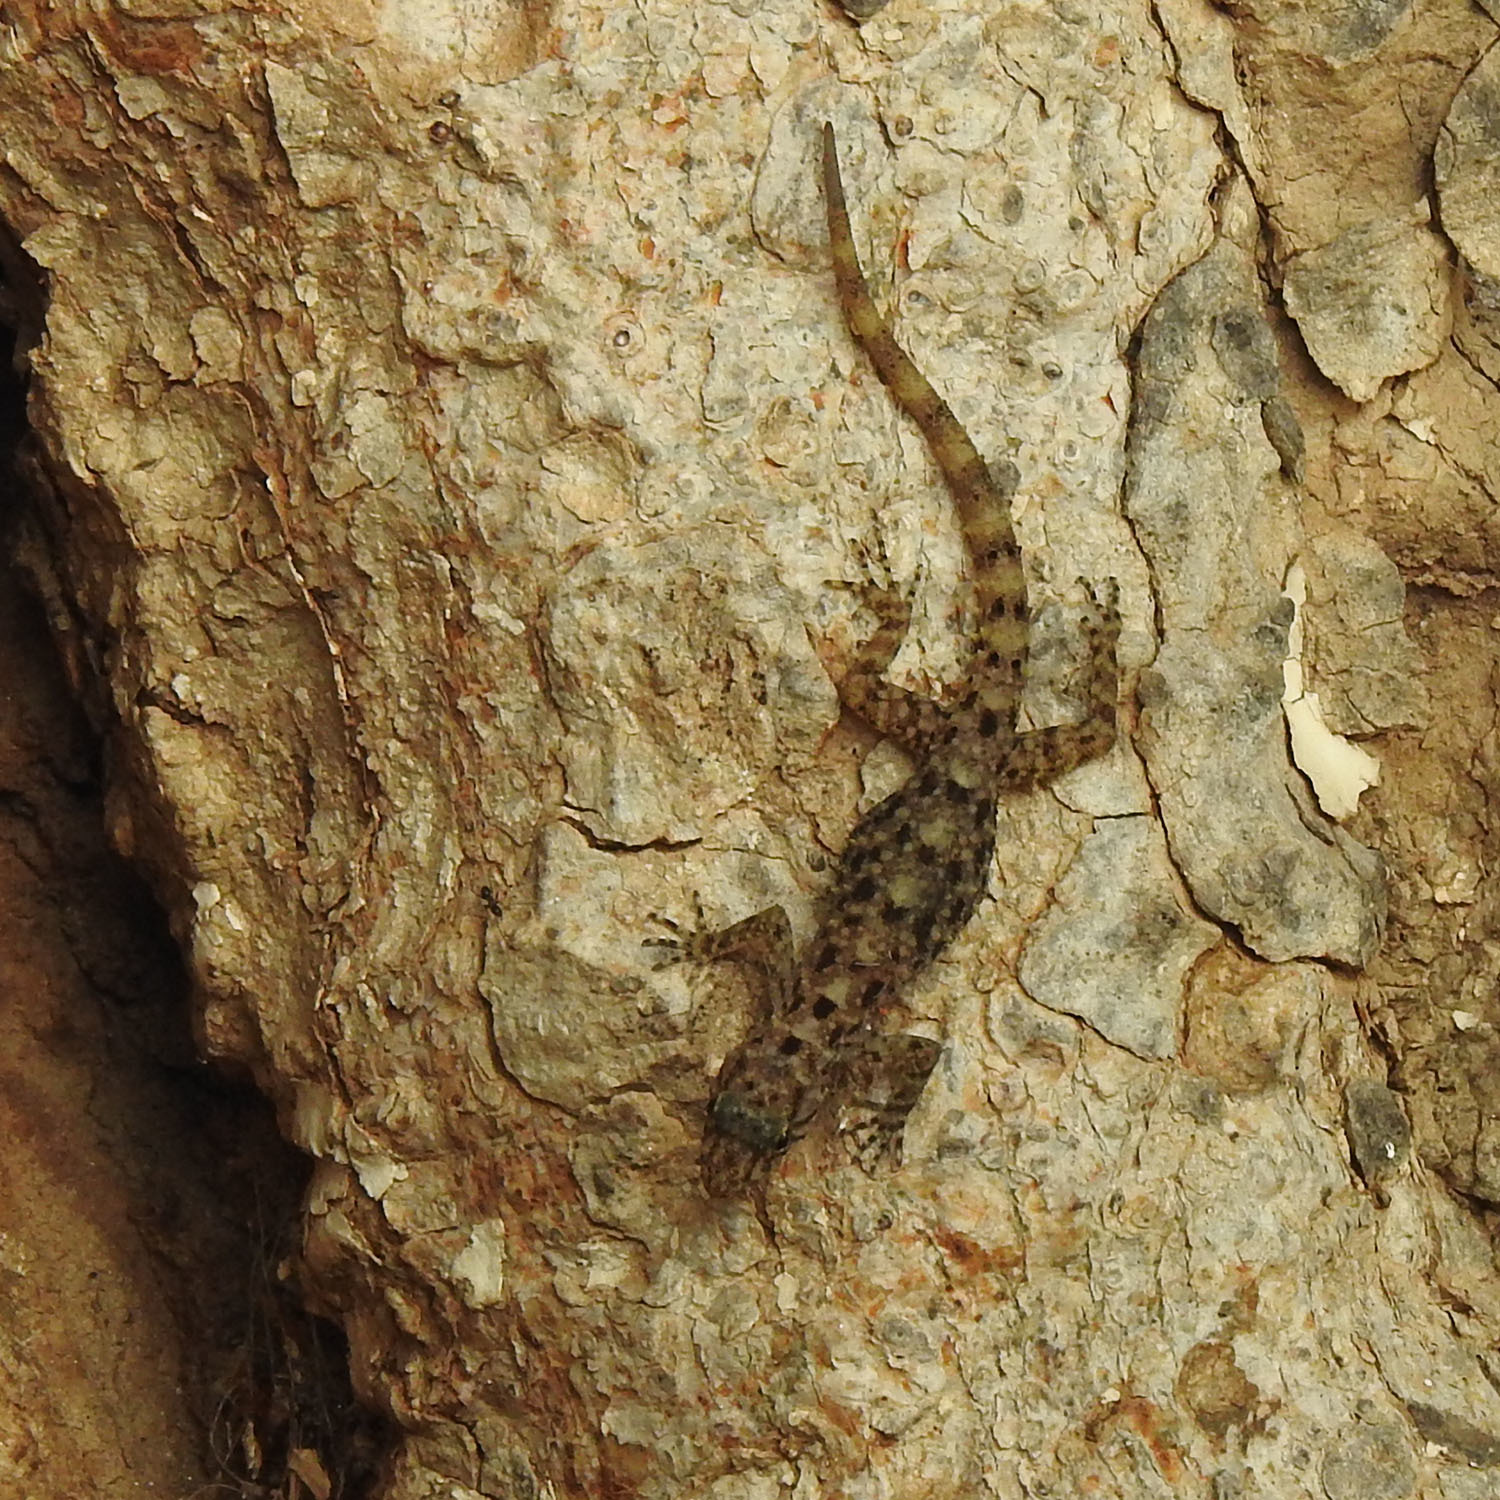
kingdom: Animalia
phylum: Chordata
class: Squamata
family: Gekkonidae
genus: Hemidactylus
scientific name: Hemidactylus frenatus
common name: Common house gecko
